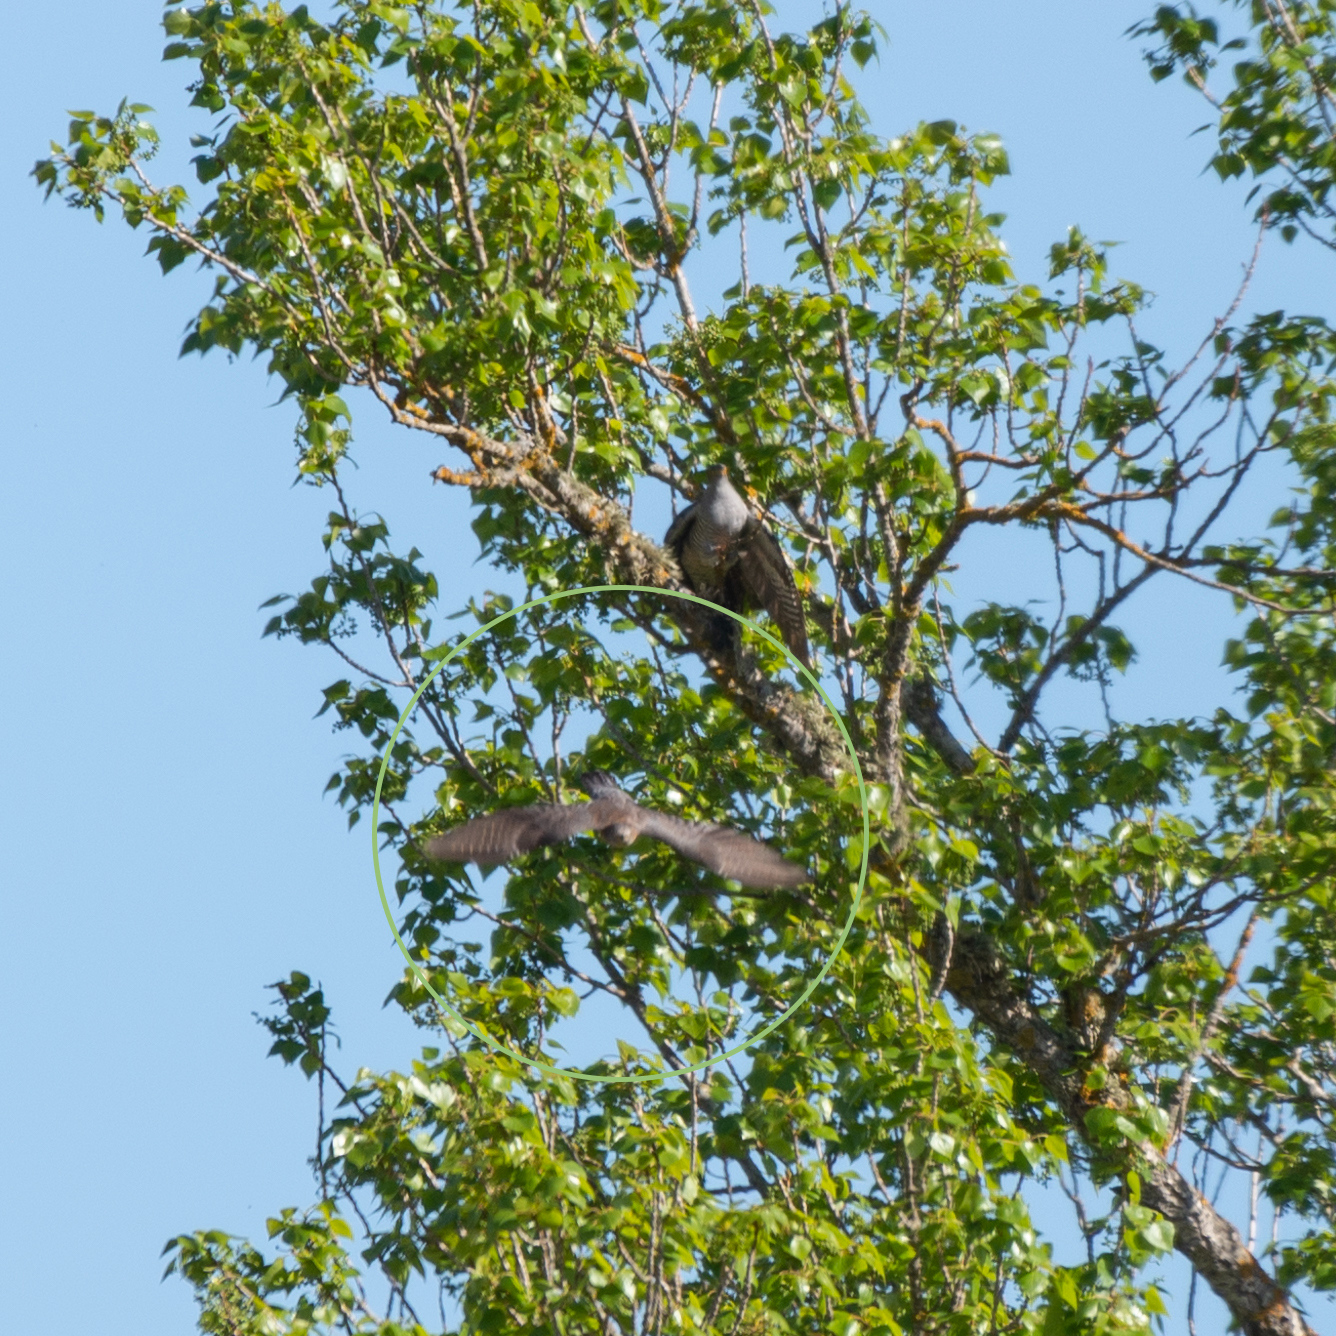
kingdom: Animalia
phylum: Chordata
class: Aves
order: Cuculiformes
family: Cuculidae
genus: Cuculus
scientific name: Cuculus canorus
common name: Common cuckoo
